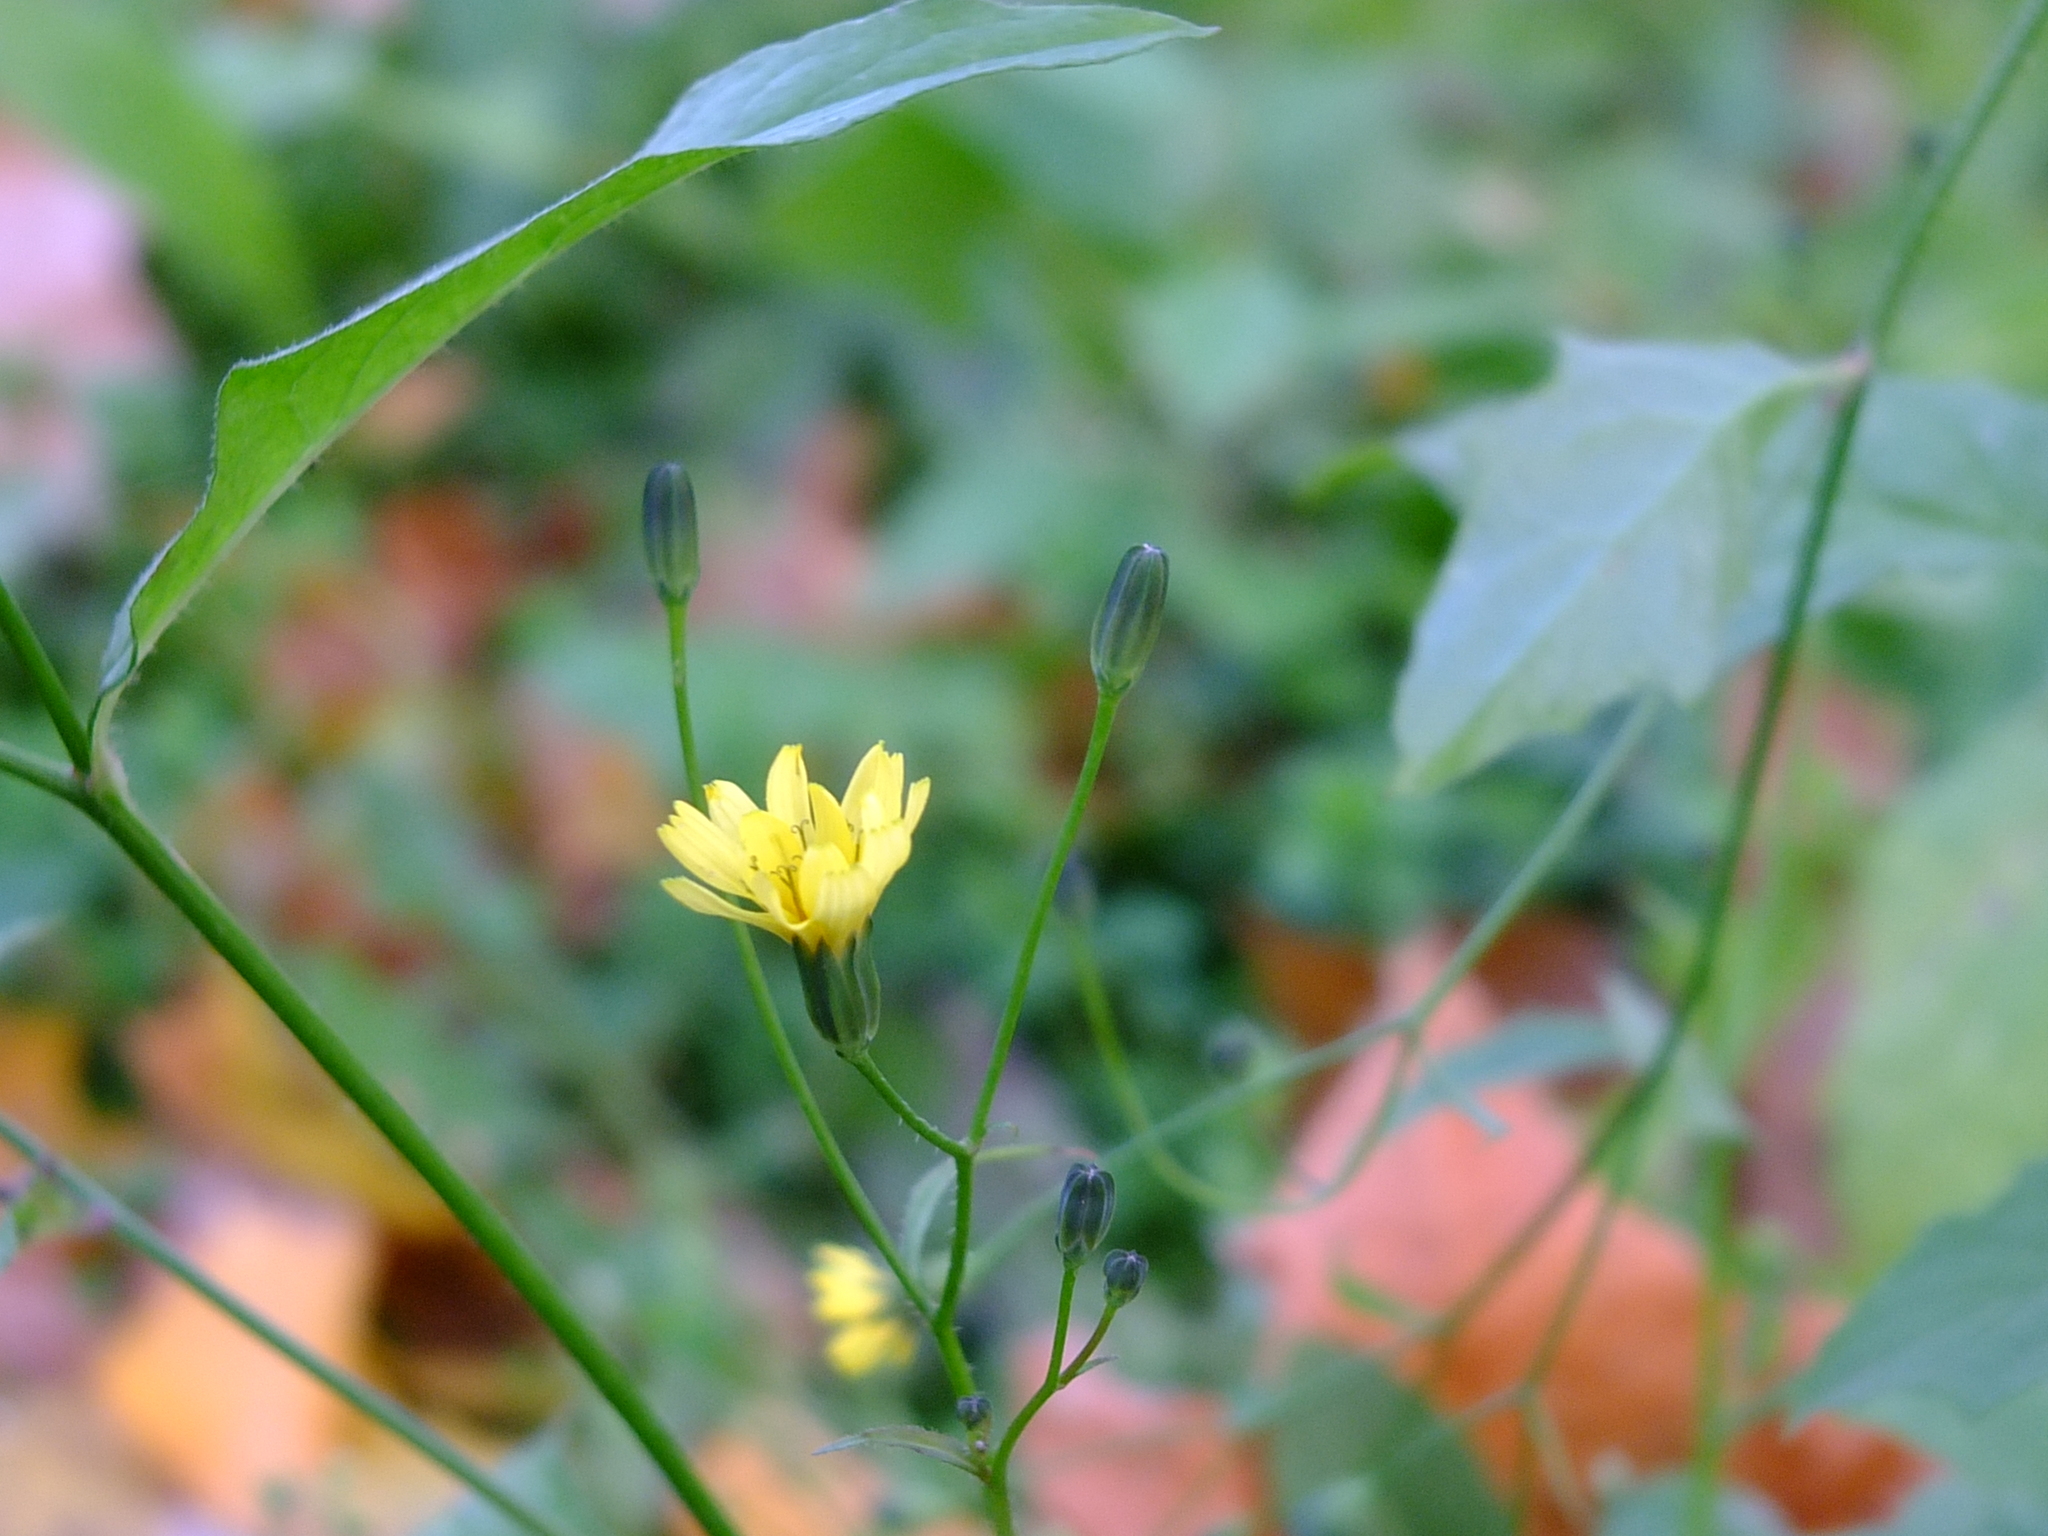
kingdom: Plantae
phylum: Tracheophyta
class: Magnoliopsida
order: Asterales
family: Asteraceae
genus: Lapsana
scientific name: Lapsana communis
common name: Nipplewort
